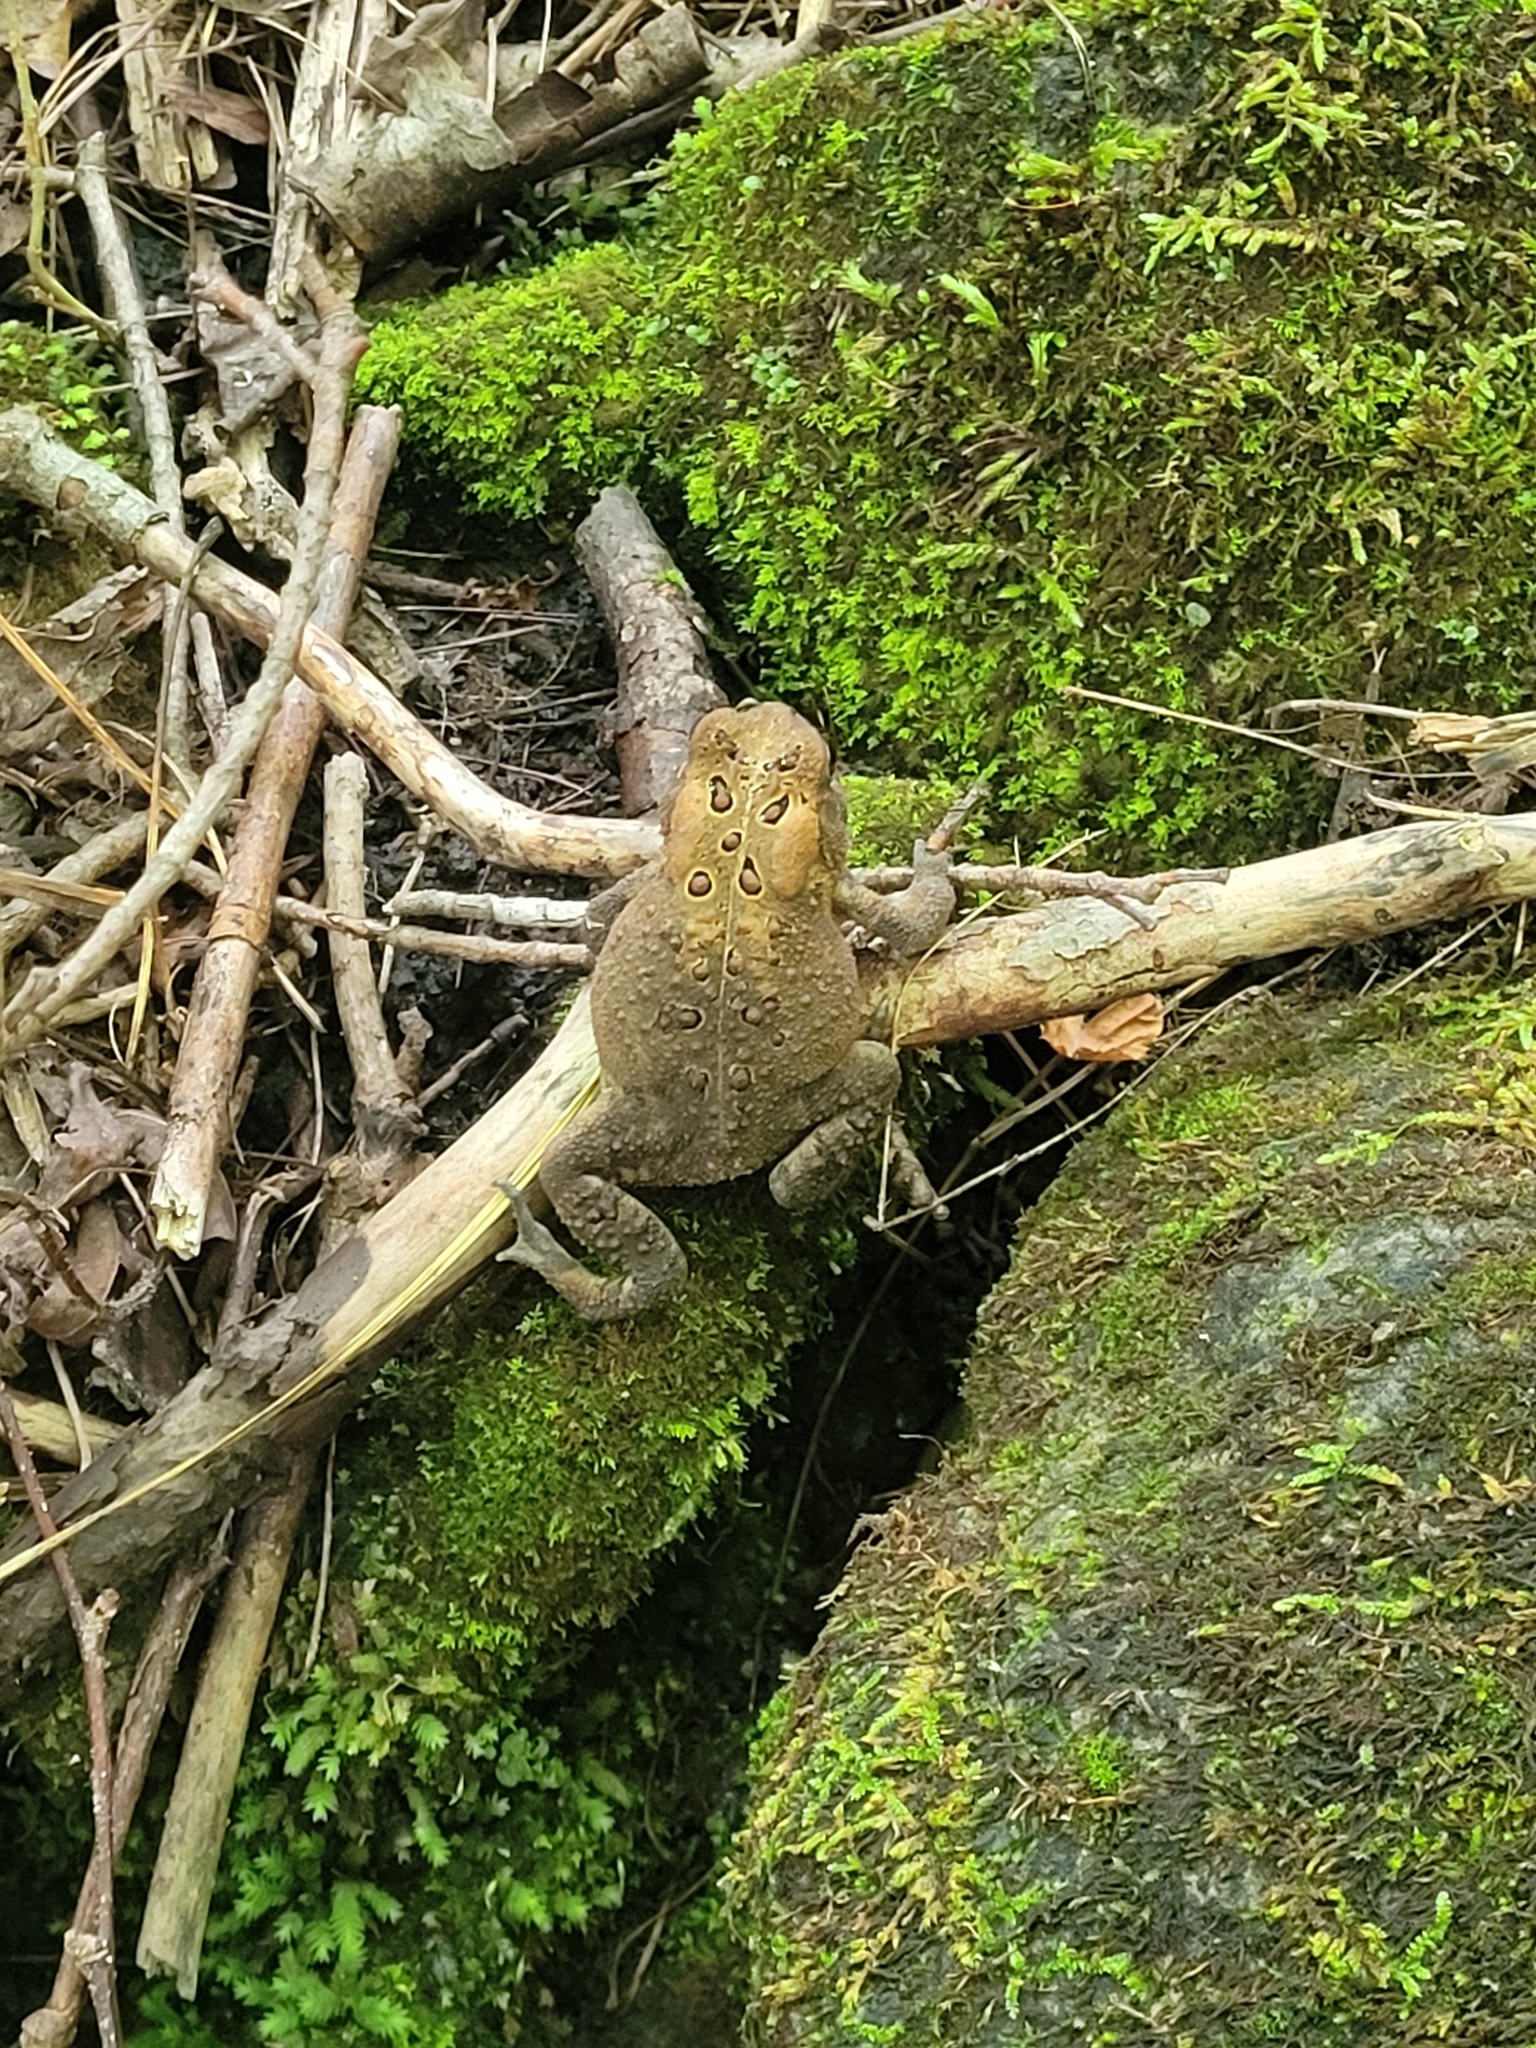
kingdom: Animalia
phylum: Chordata
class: Amphibia
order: Anura
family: Bufonidae
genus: Anaxyrus
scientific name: Anaxyrus americanus
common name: American toad
